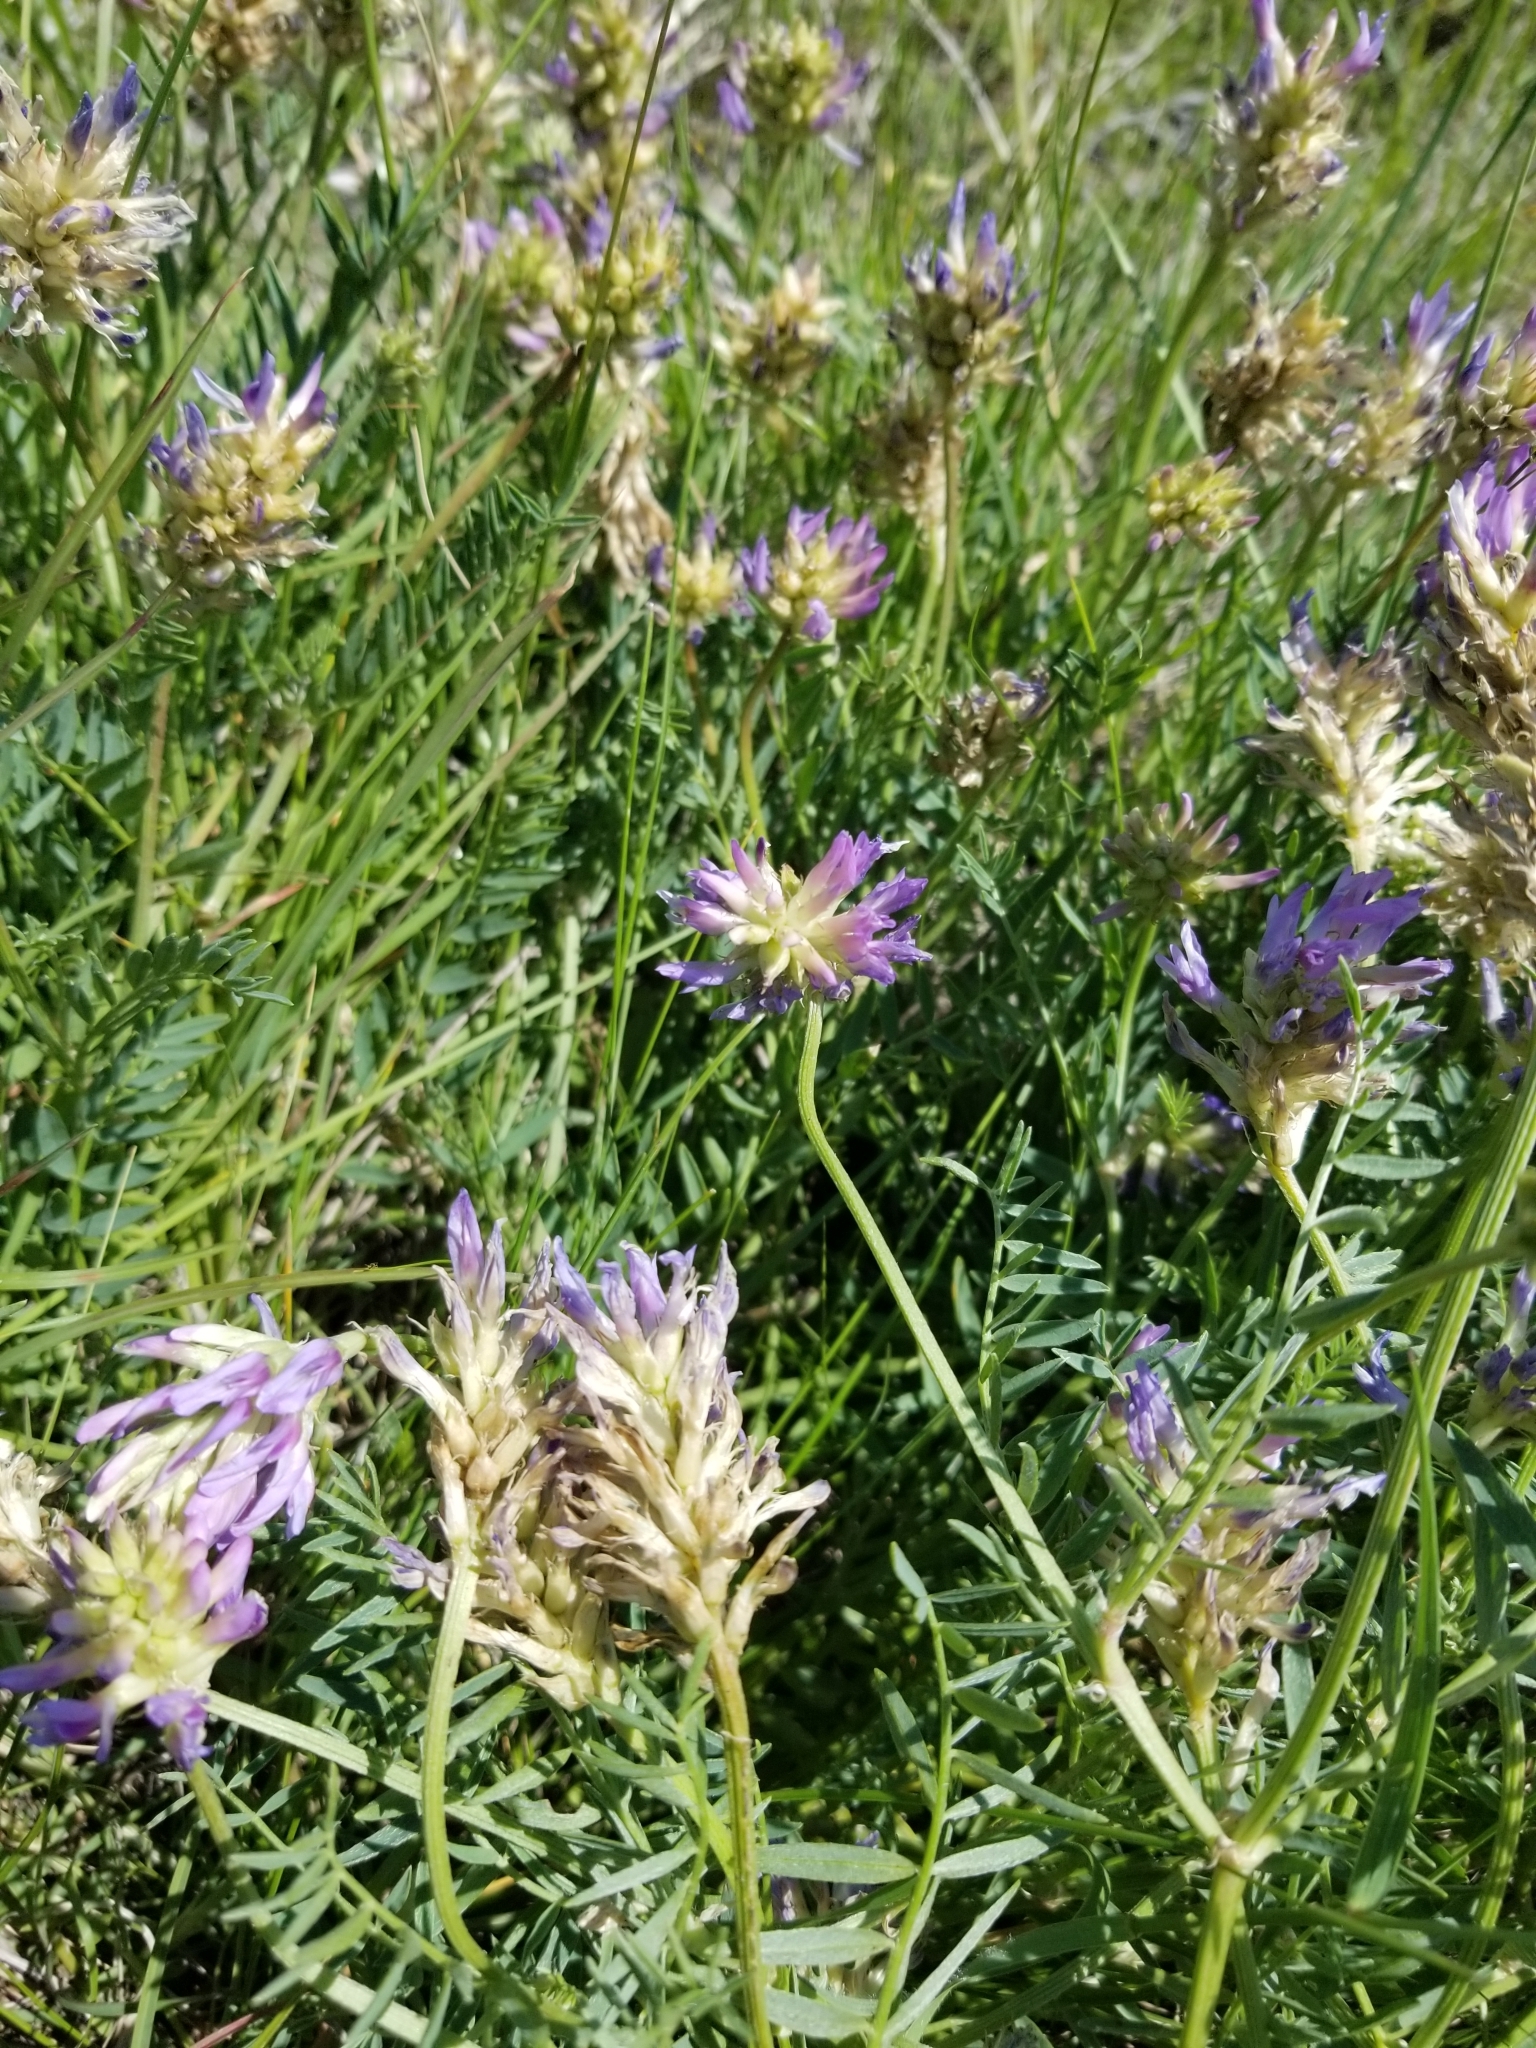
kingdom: Plantae
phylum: Tracheophyta
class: Magnoliopsida
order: Fabales
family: Fabaceae
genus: Astragalus
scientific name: Astragalus laxmannii
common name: Laxmann's milk-vetch
